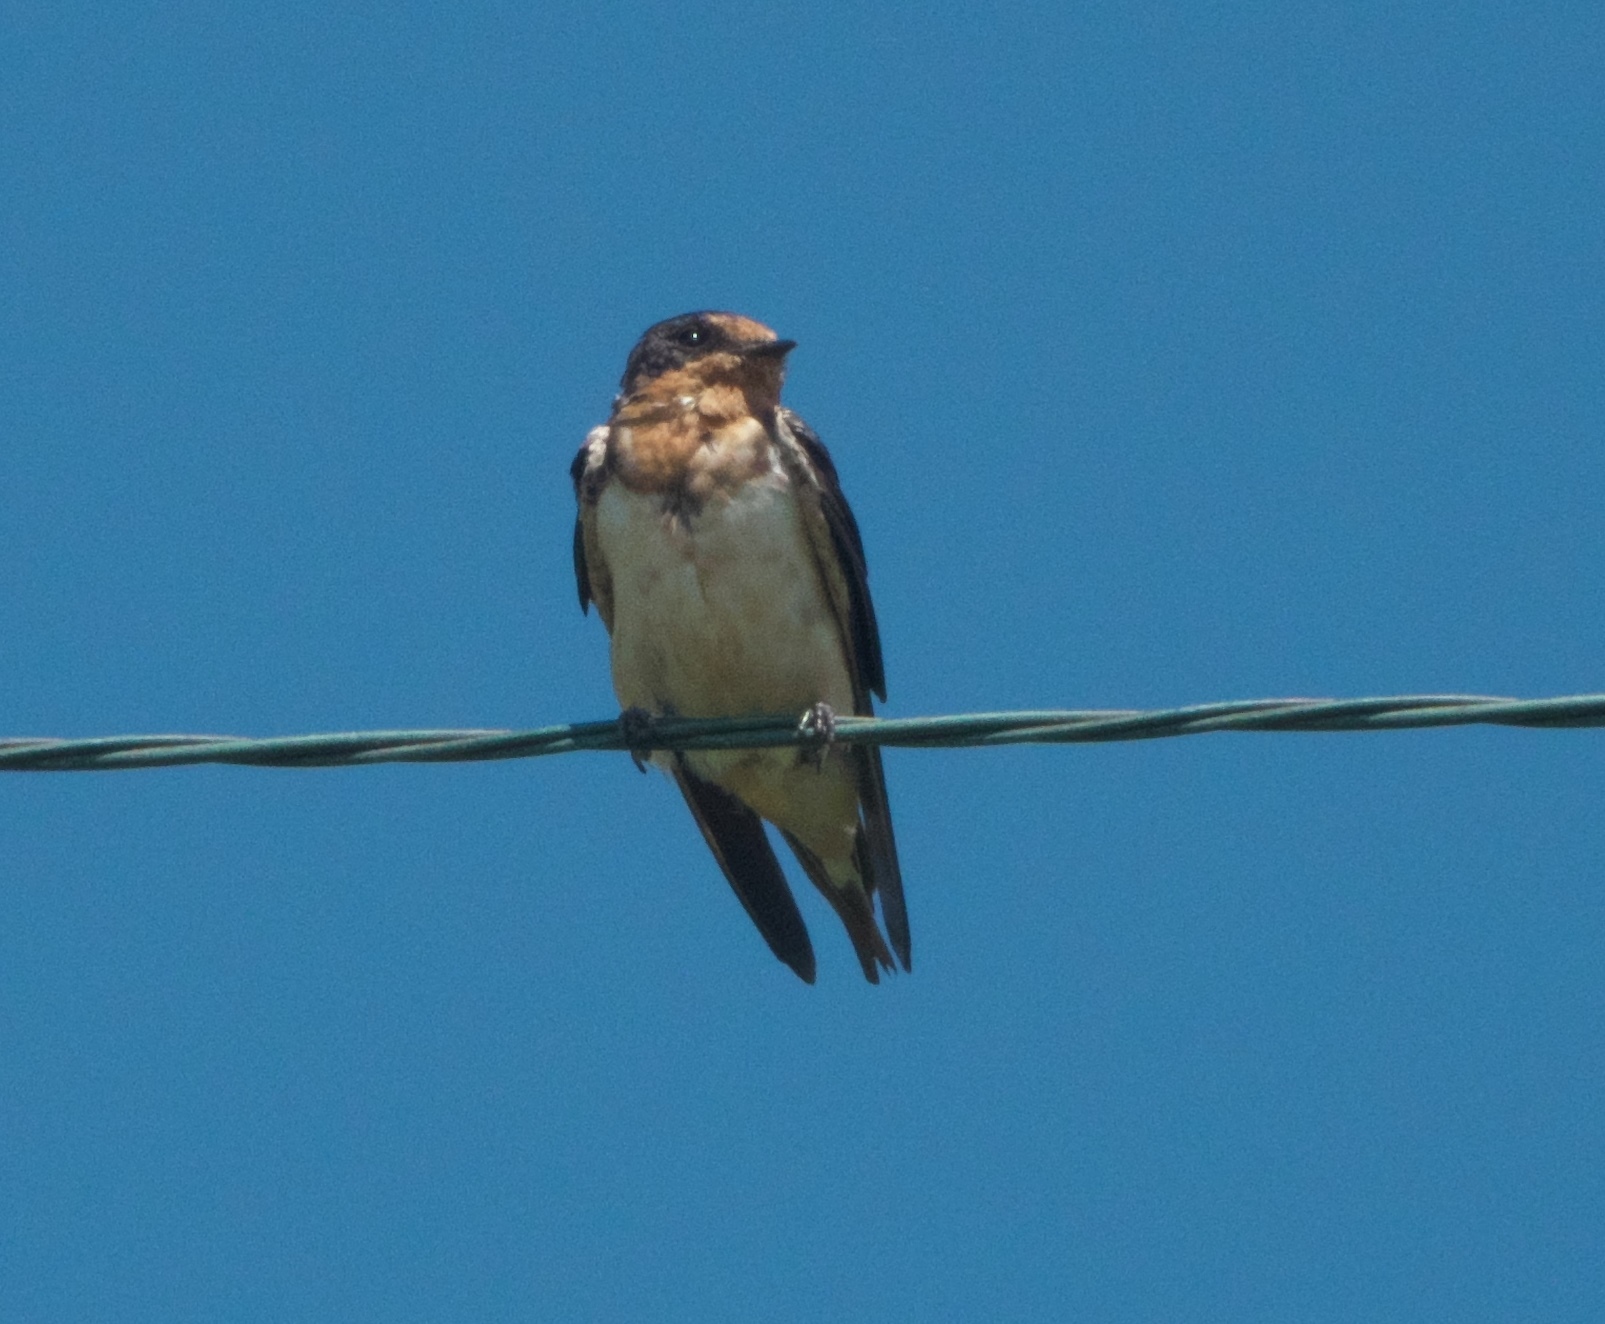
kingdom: Animalia
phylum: Chordata
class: Aves
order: Passeriformes
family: Hirundinidae
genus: Hirundo
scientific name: Hirundo rustica
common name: Barn swallow
